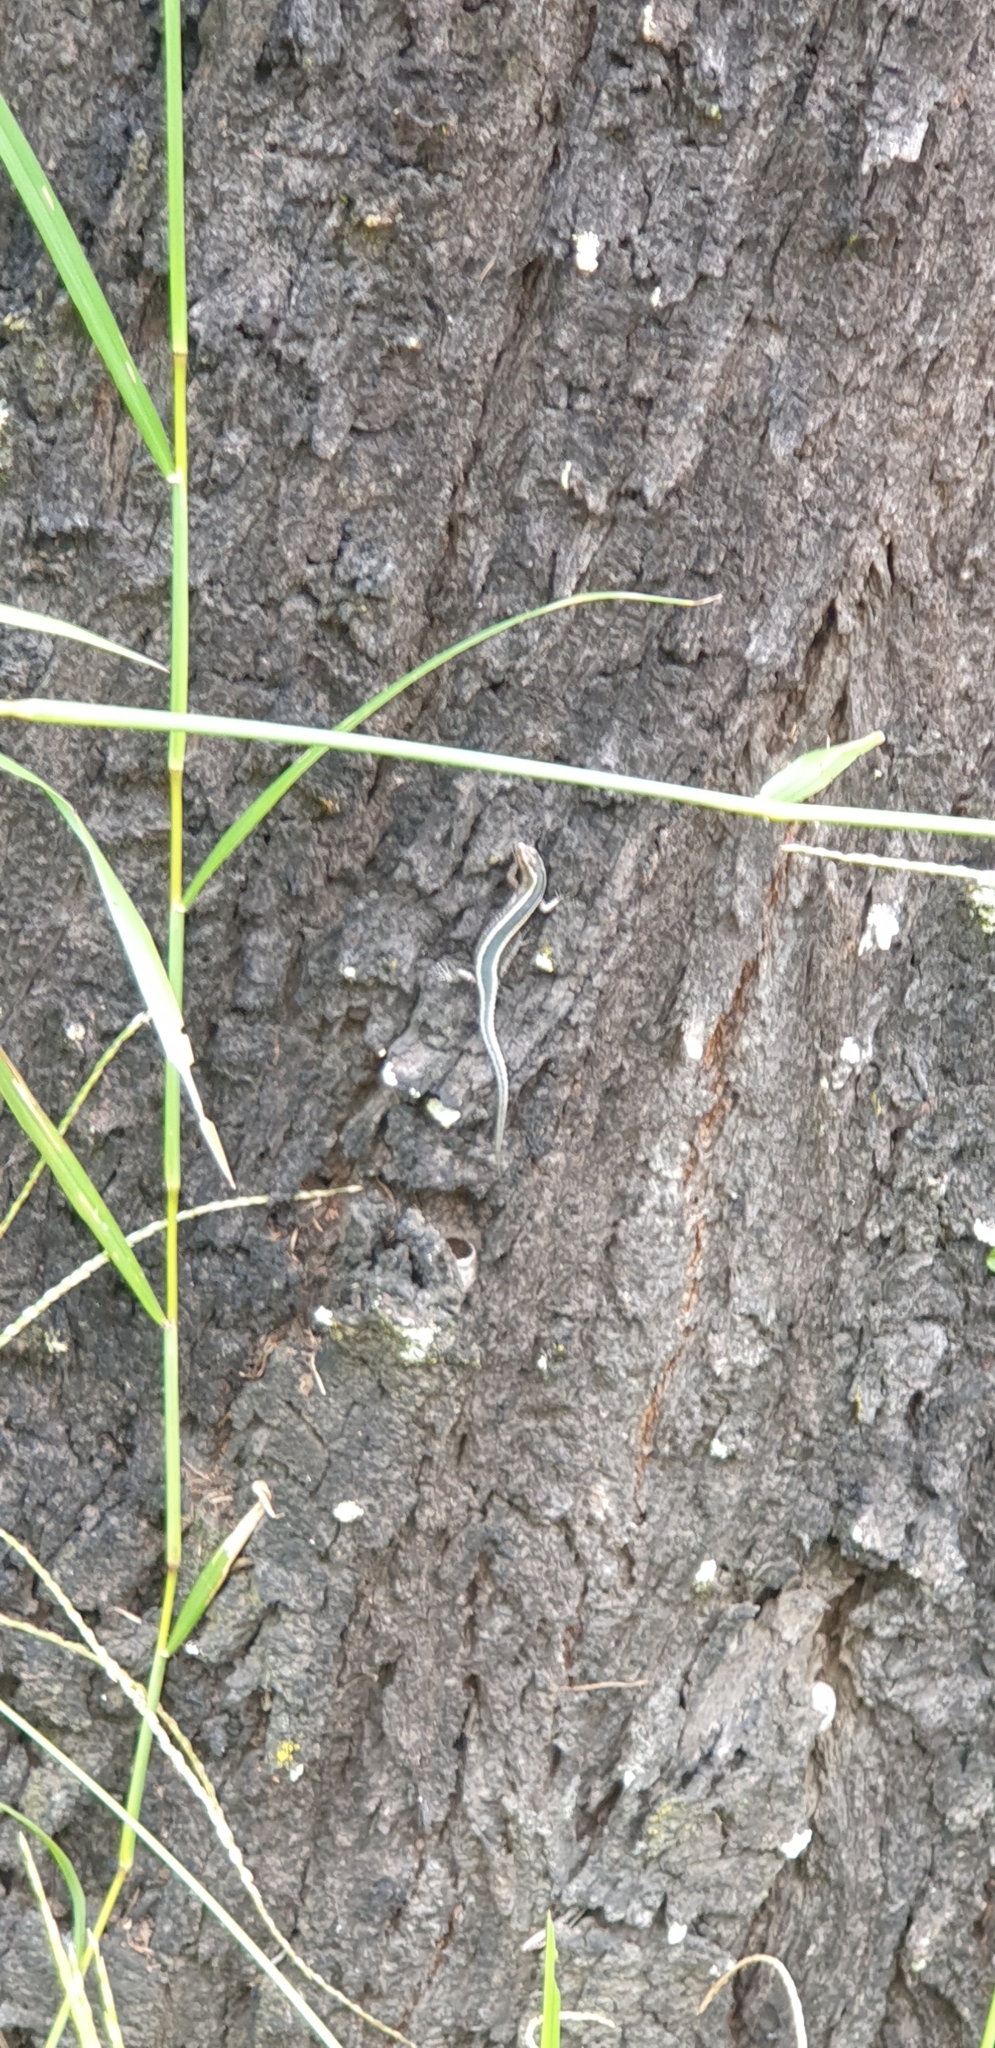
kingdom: Animalia
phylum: Chordata
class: Squamata
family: Scincidae
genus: Cryptoblepharus
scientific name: Cryptoblepharus pulcher
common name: Elegant snake-eyed skink
